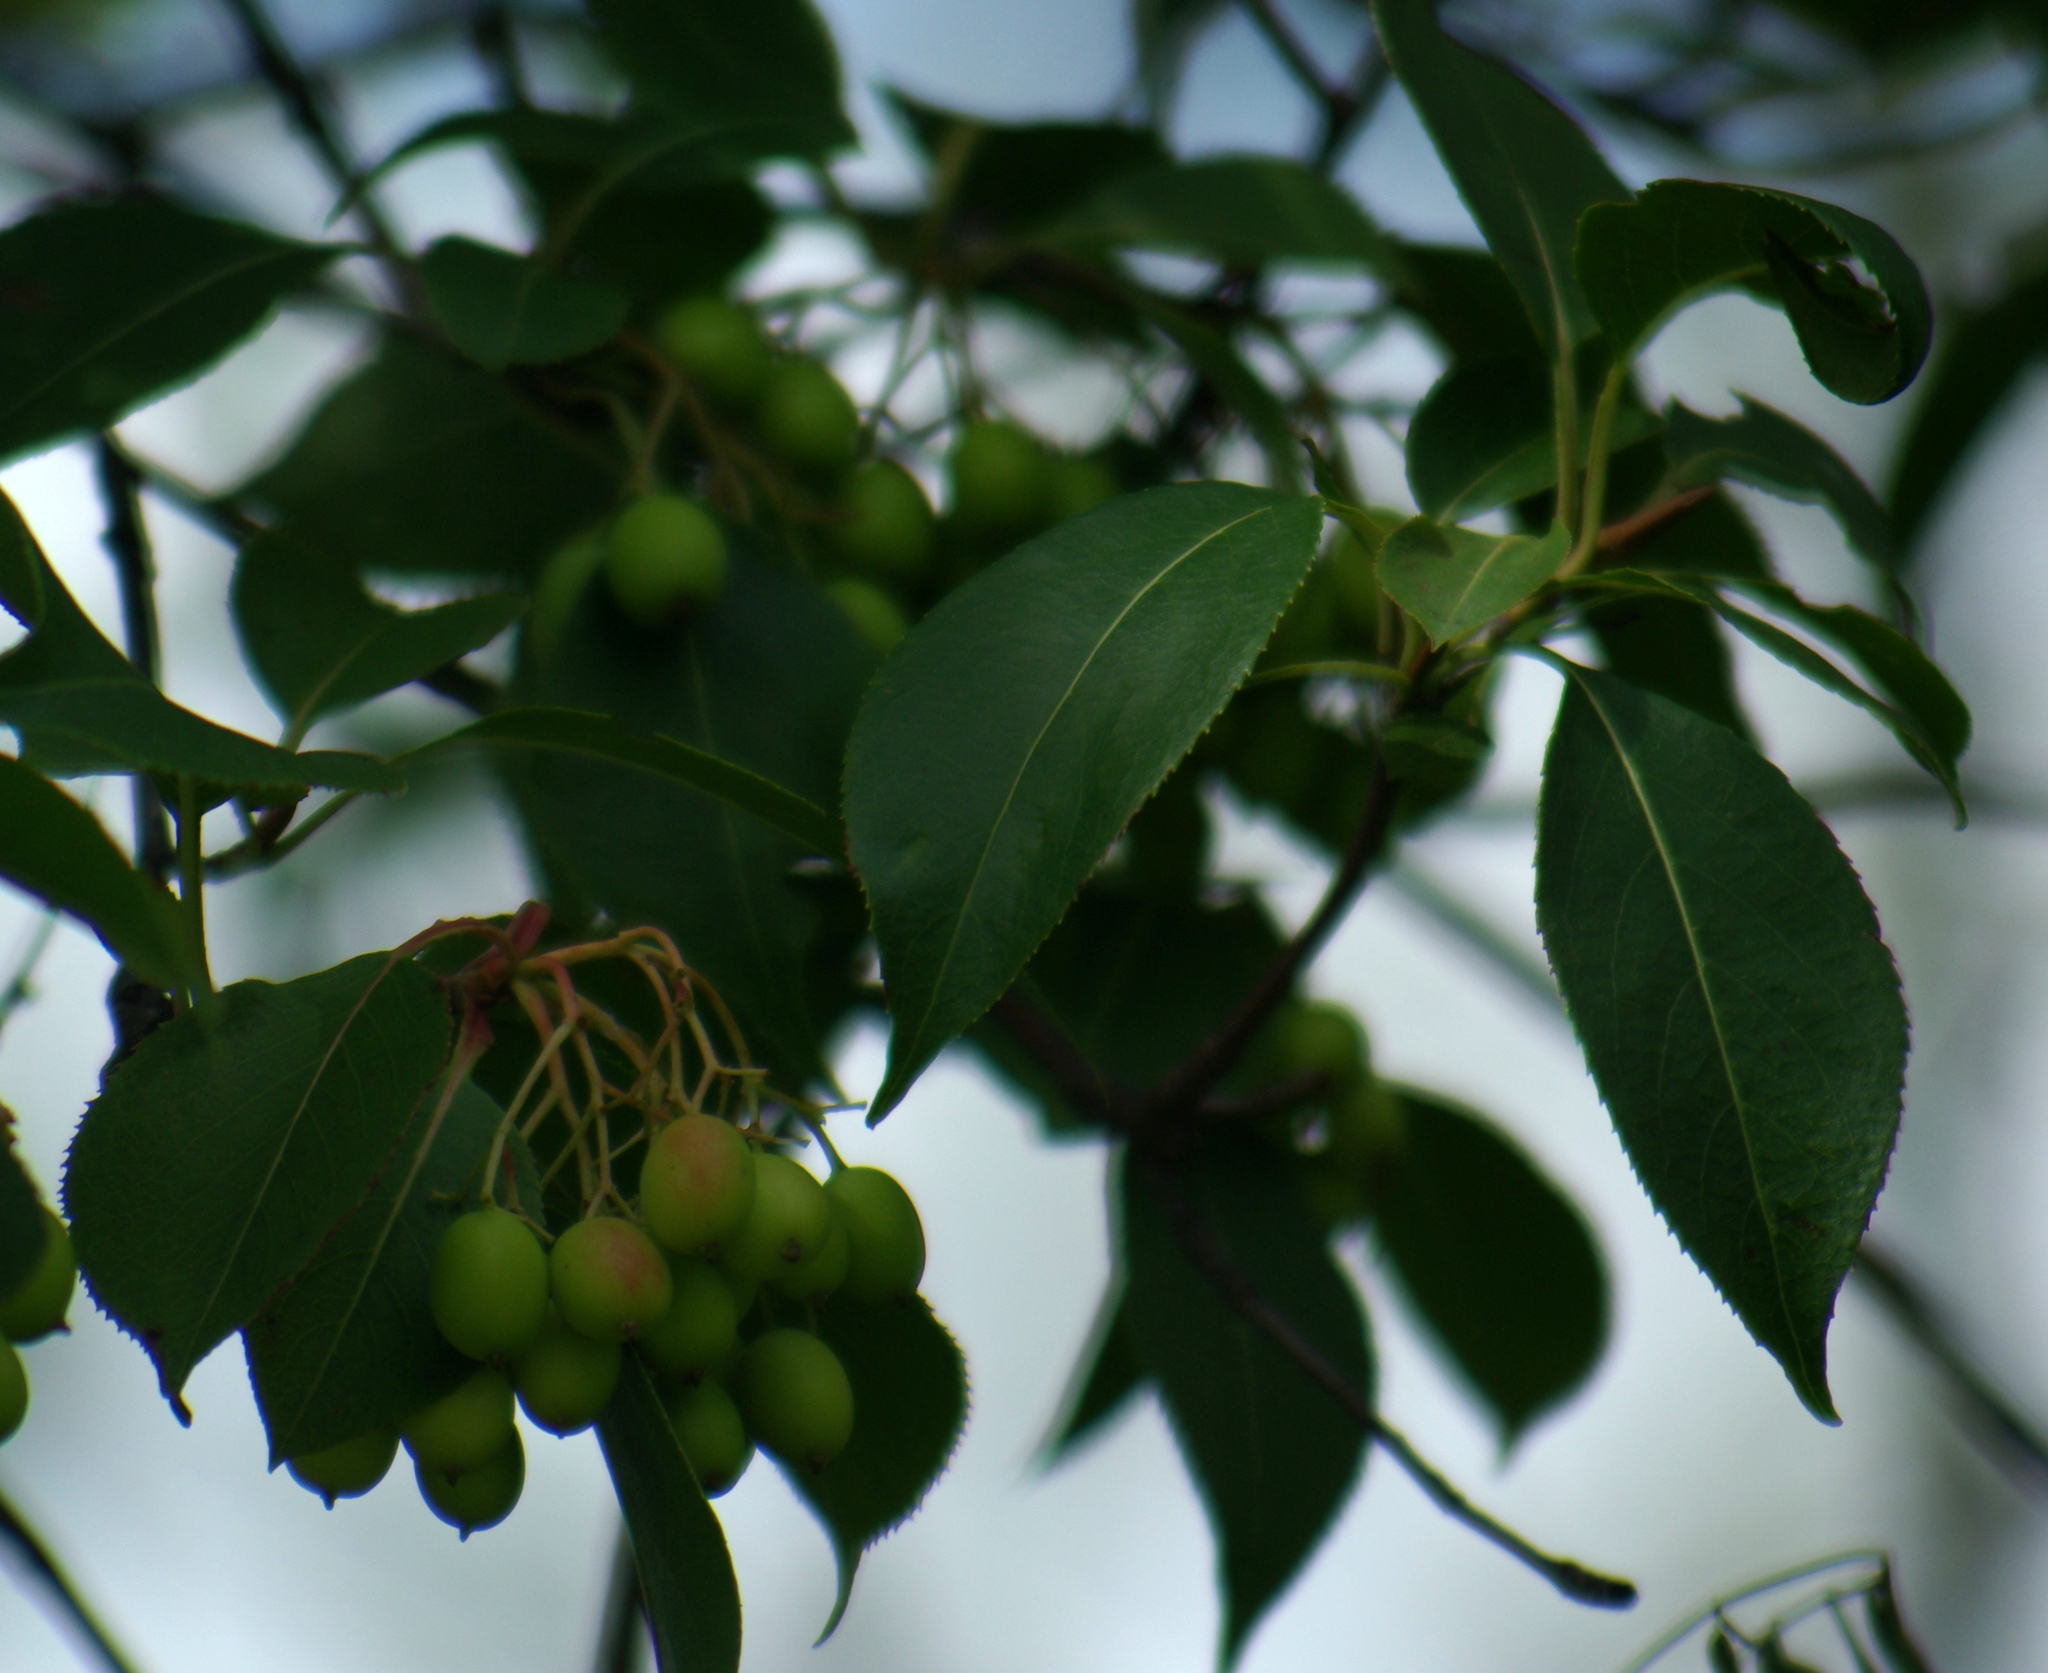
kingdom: Plantae
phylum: Tracheophyta
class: Magnoliopsida
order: Dipsacales
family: Viburnaceae
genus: Viburnum
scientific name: Viburnum lentago
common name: Black haw
